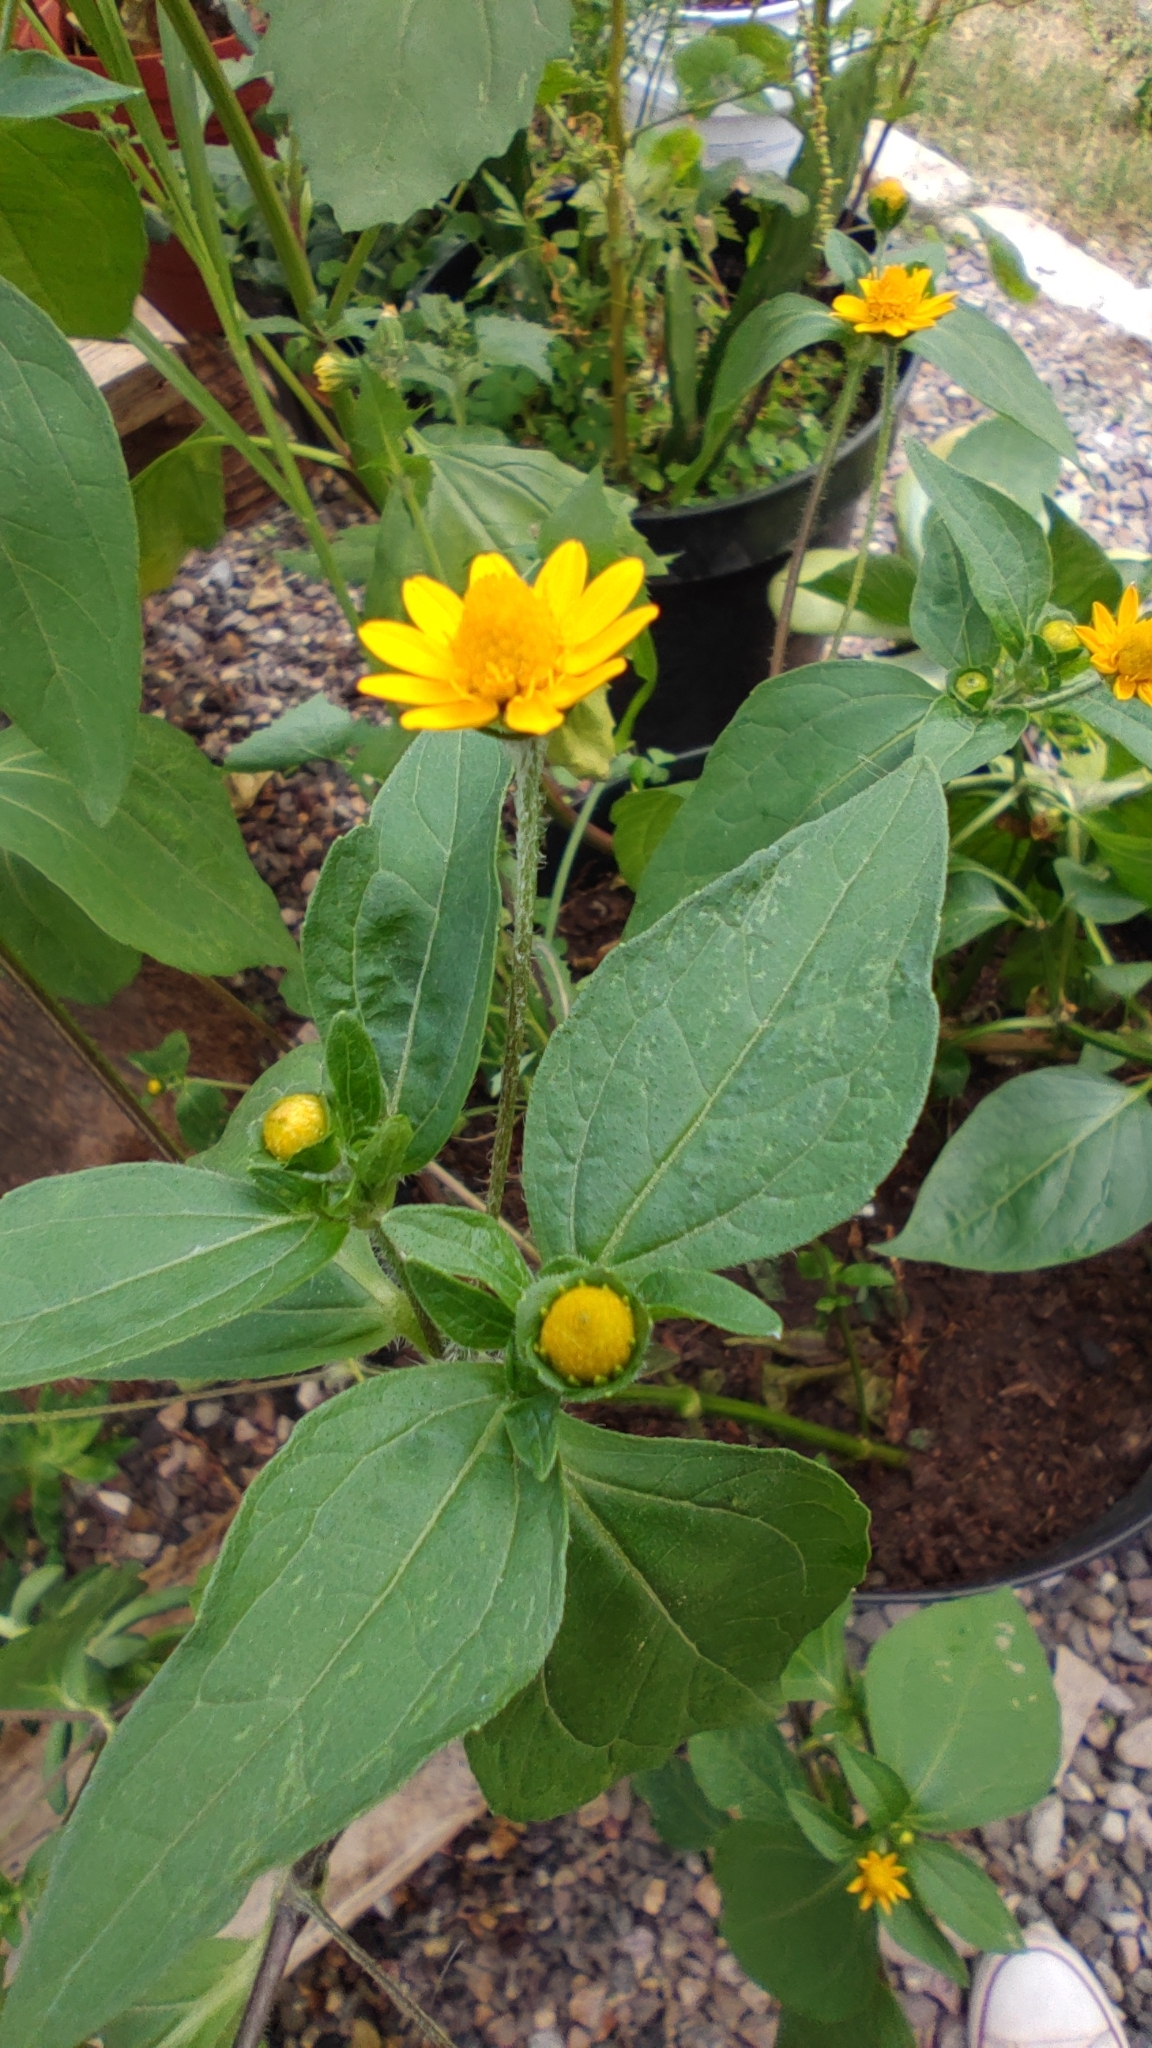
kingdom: Plantae
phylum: Tracheophyta
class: Magnoliopsida
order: Asterales
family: Asteraceae
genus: Melampodium
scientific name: Melampodium divaricatum
